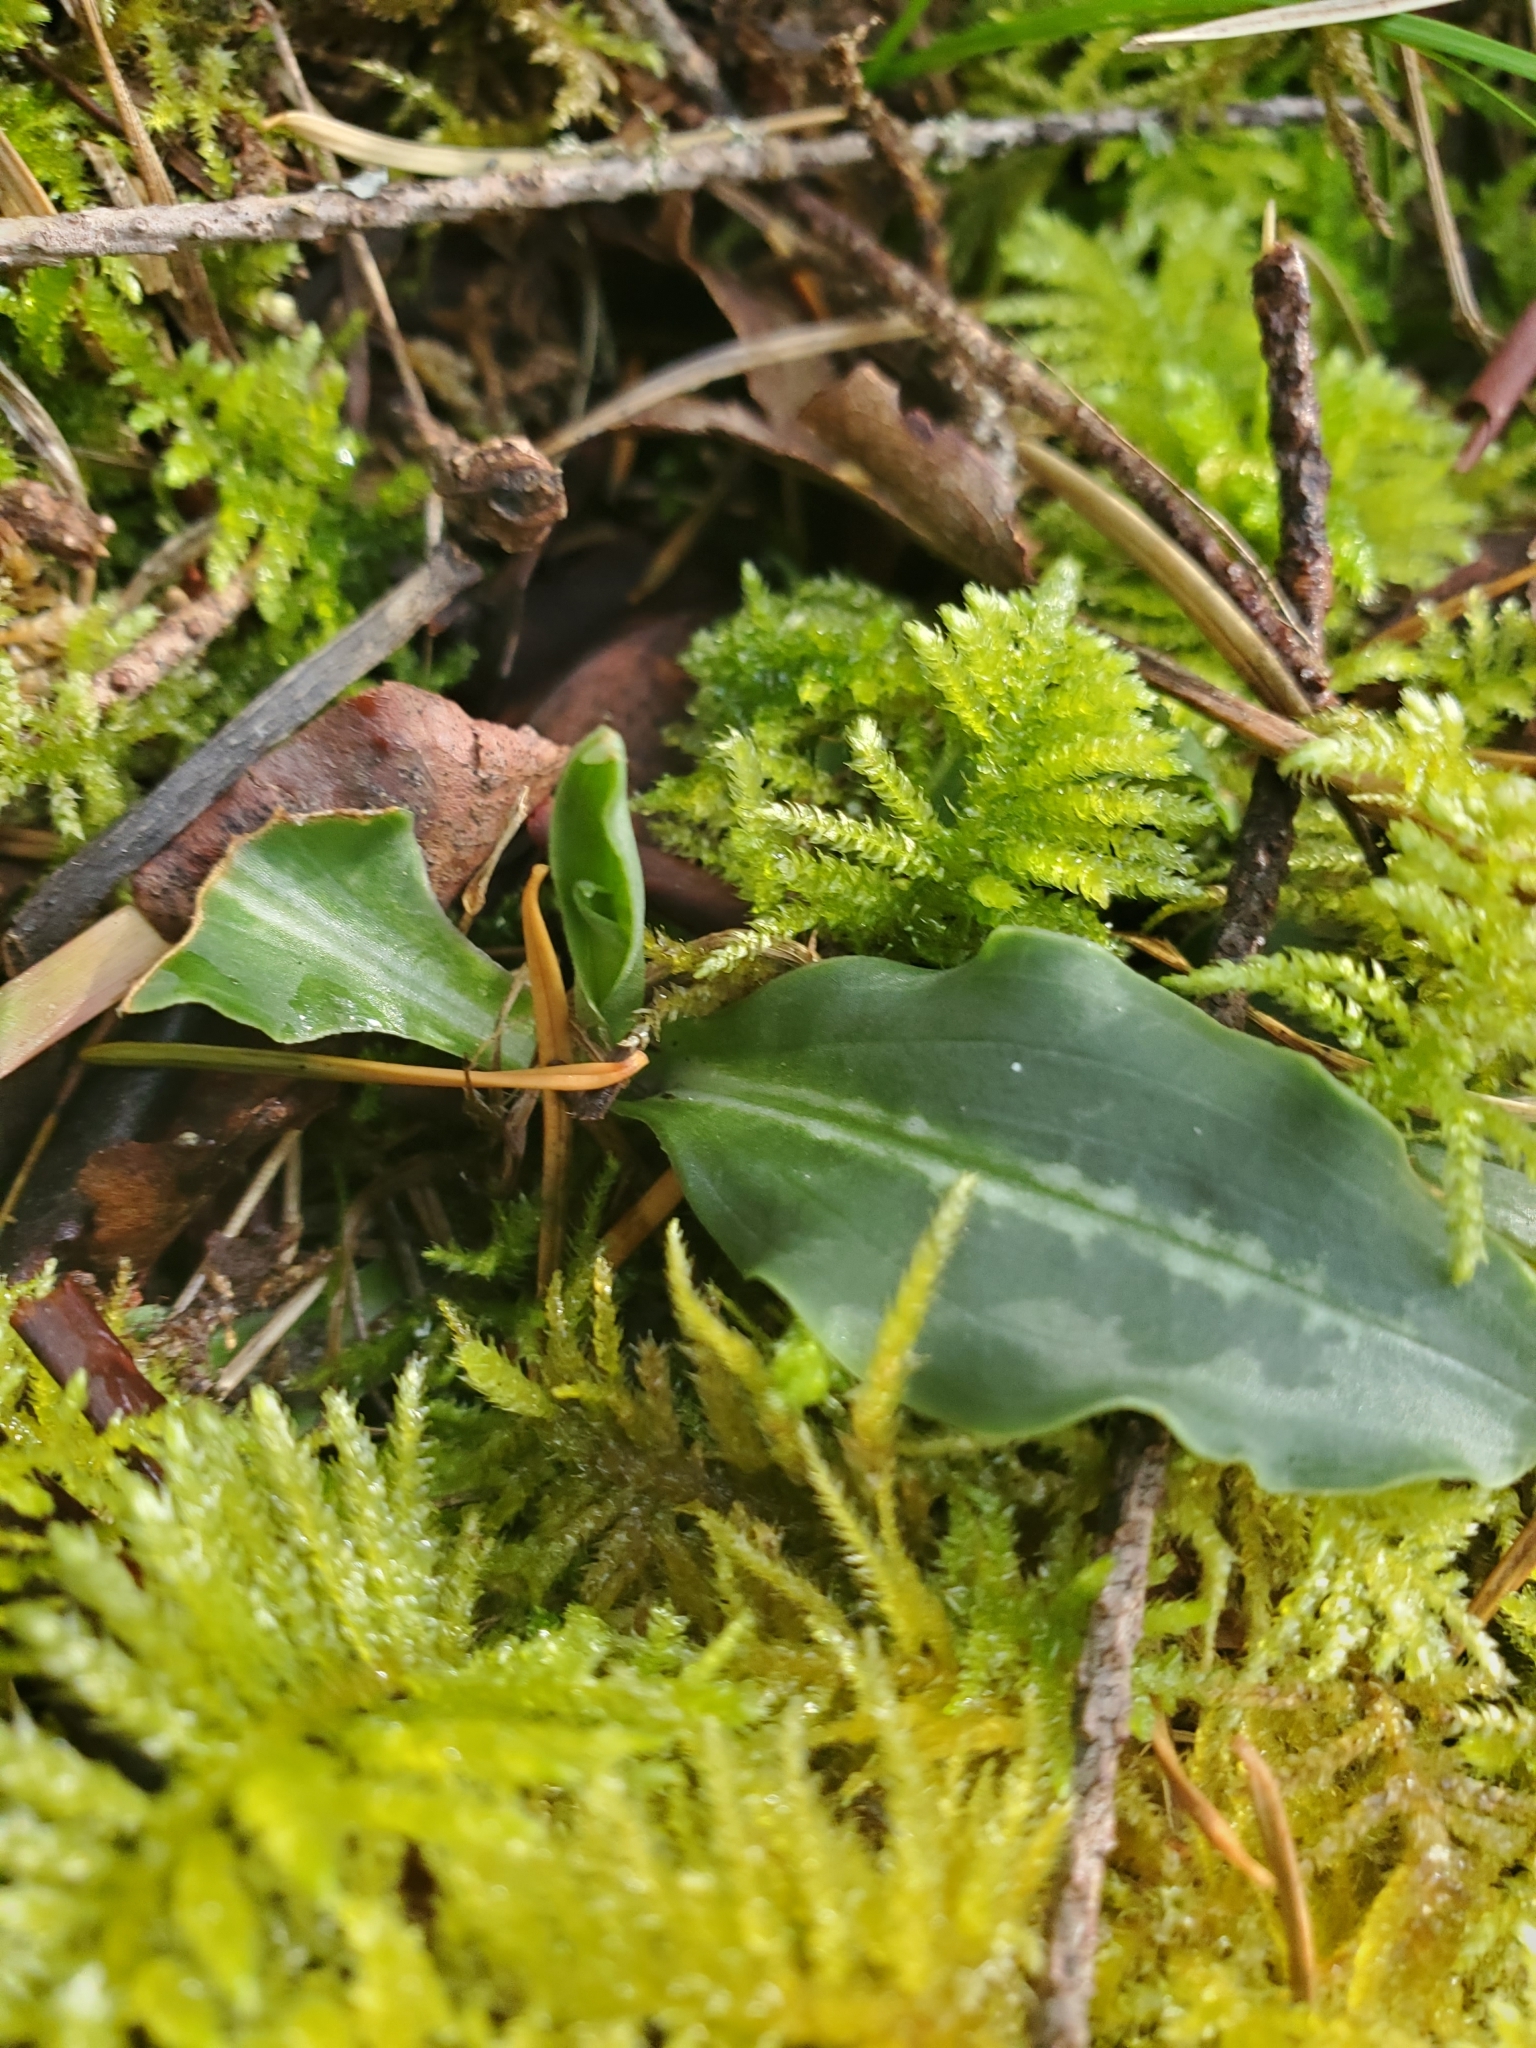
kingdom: Plantae
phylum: Tracheophyta
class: Liliopsida
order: Asparagales
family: Orchidaceae
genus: Goodyera
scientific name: Goodyera oblongifolia
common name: Giant rattlesnake-plantain
